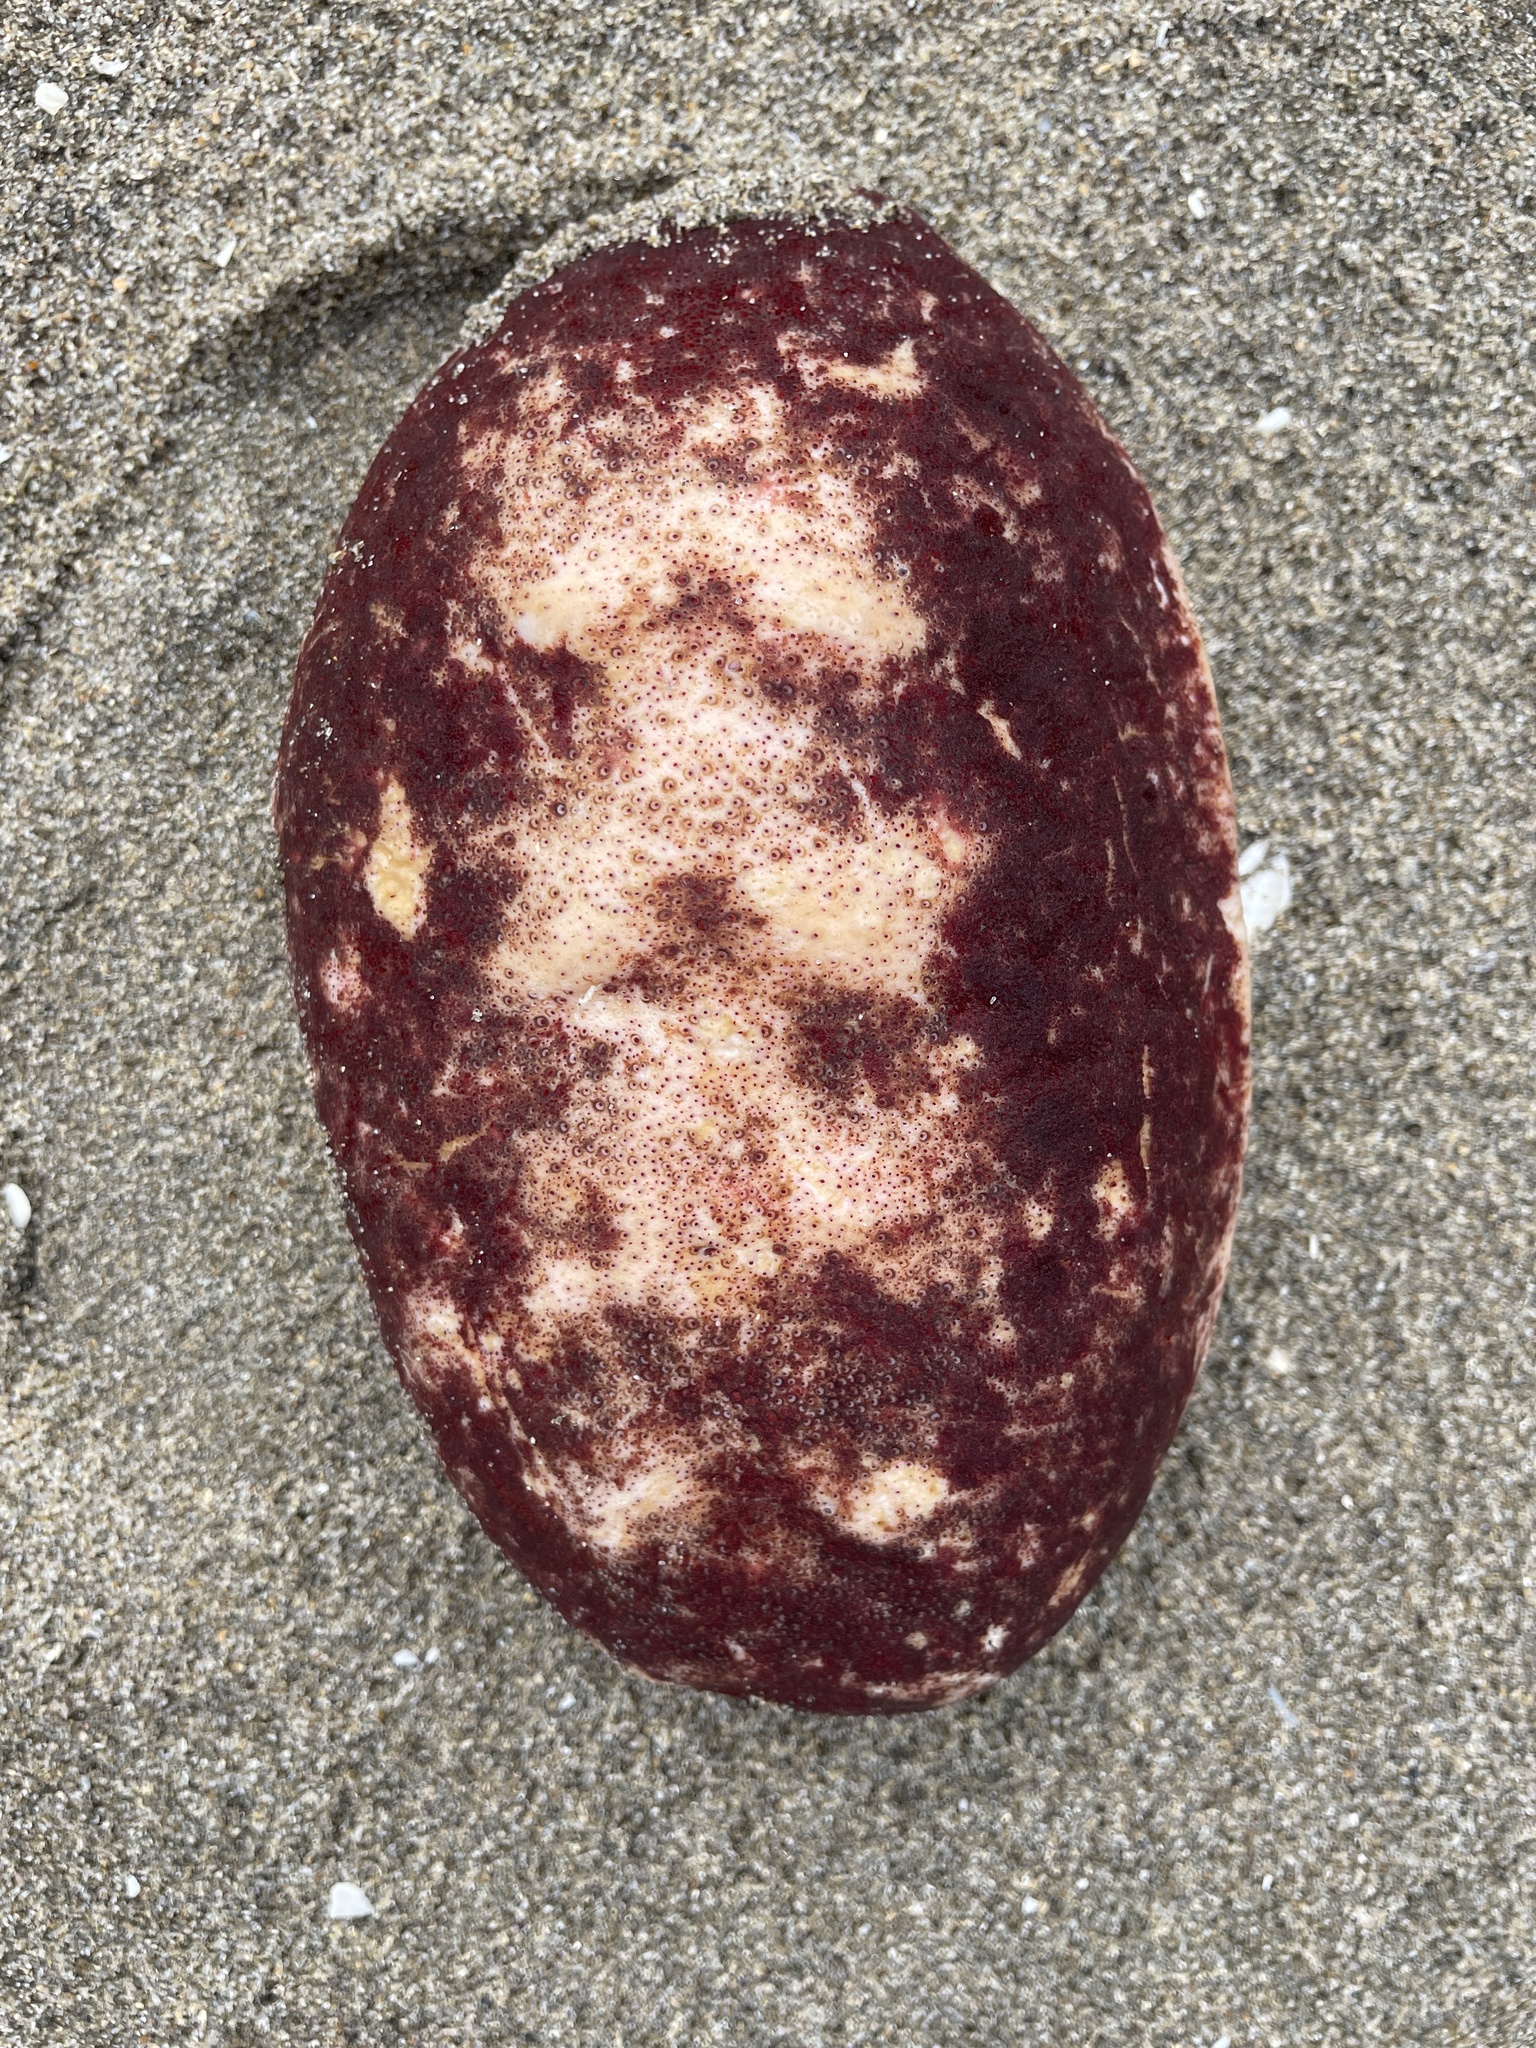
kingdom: Animalia
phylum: Mollusca
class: Polyplacophora
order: Chitonida
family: Acanthochitonidae
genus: Cryptochiton
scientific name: Cryptochiton stelleri
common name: Giant pacific chiton
